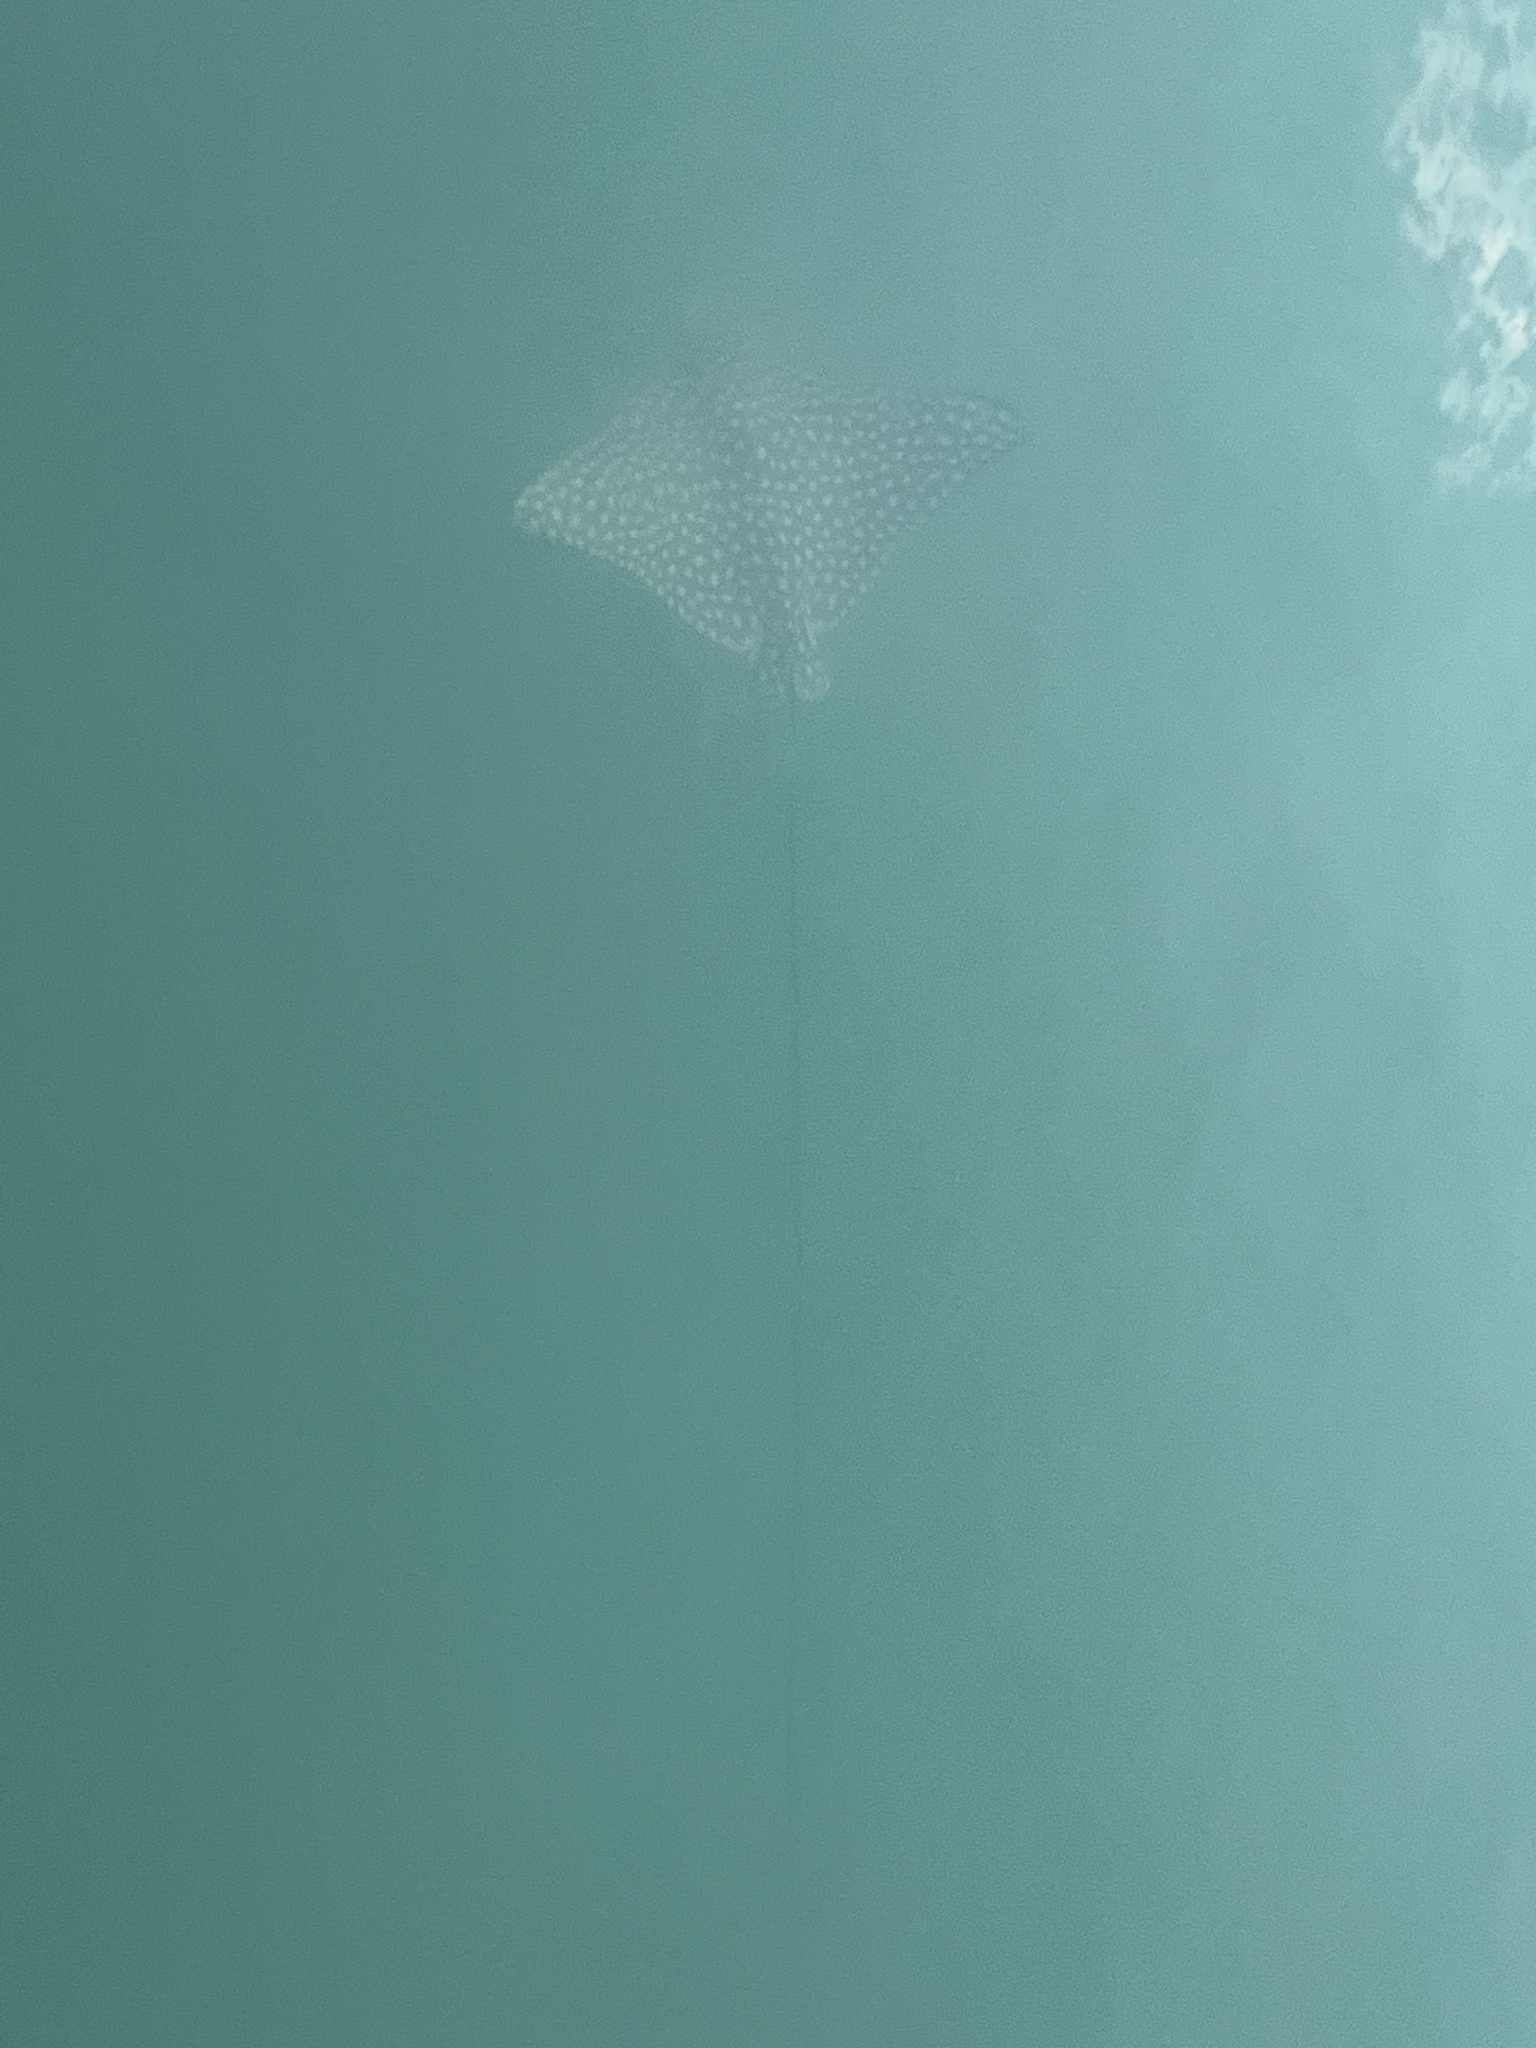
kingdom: Animalia
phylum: Chordata
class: Elasmobranchii
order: Myliobatiformes
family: Myliobatidae
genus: Aetobatus
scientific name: Aetobatus narinari
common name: Spotted eagle ray
